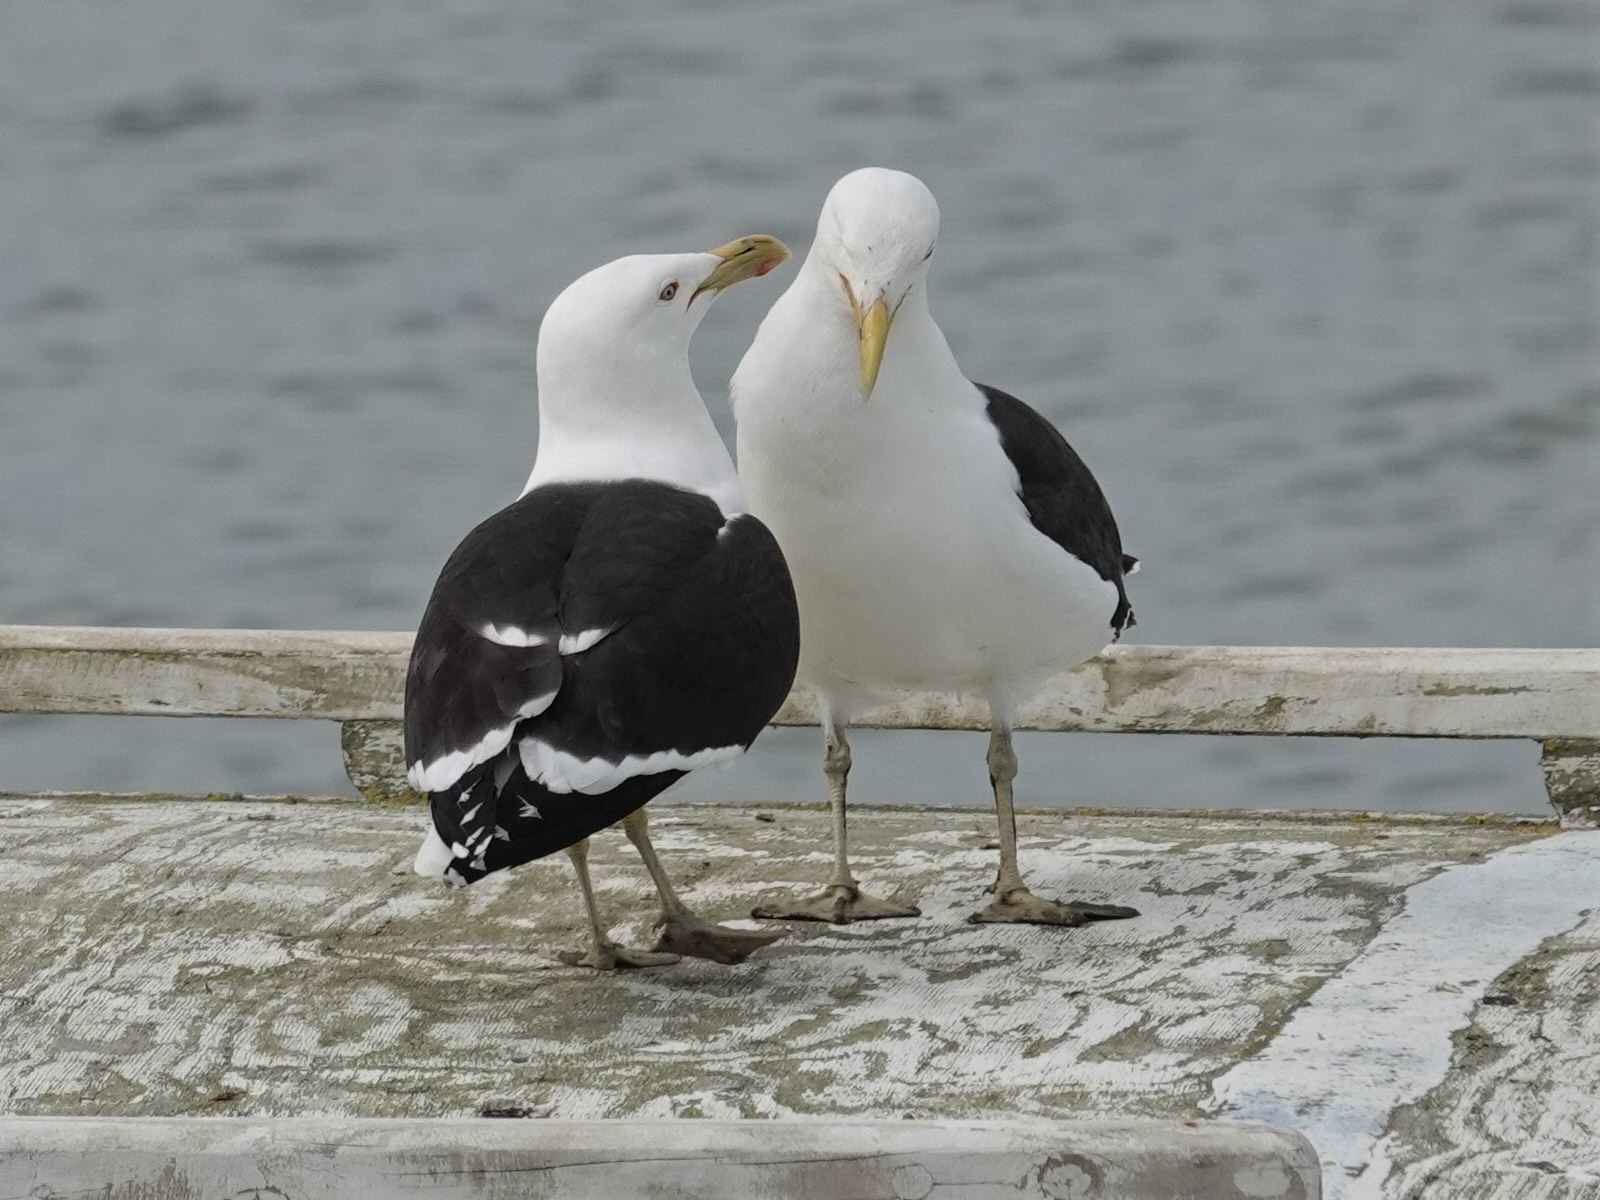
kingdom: Animalia
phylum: Chordata
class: Aves
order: Charadriiformes
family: Laridae
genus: Larus
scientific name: Larus dominicanus
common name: Kelp gull
